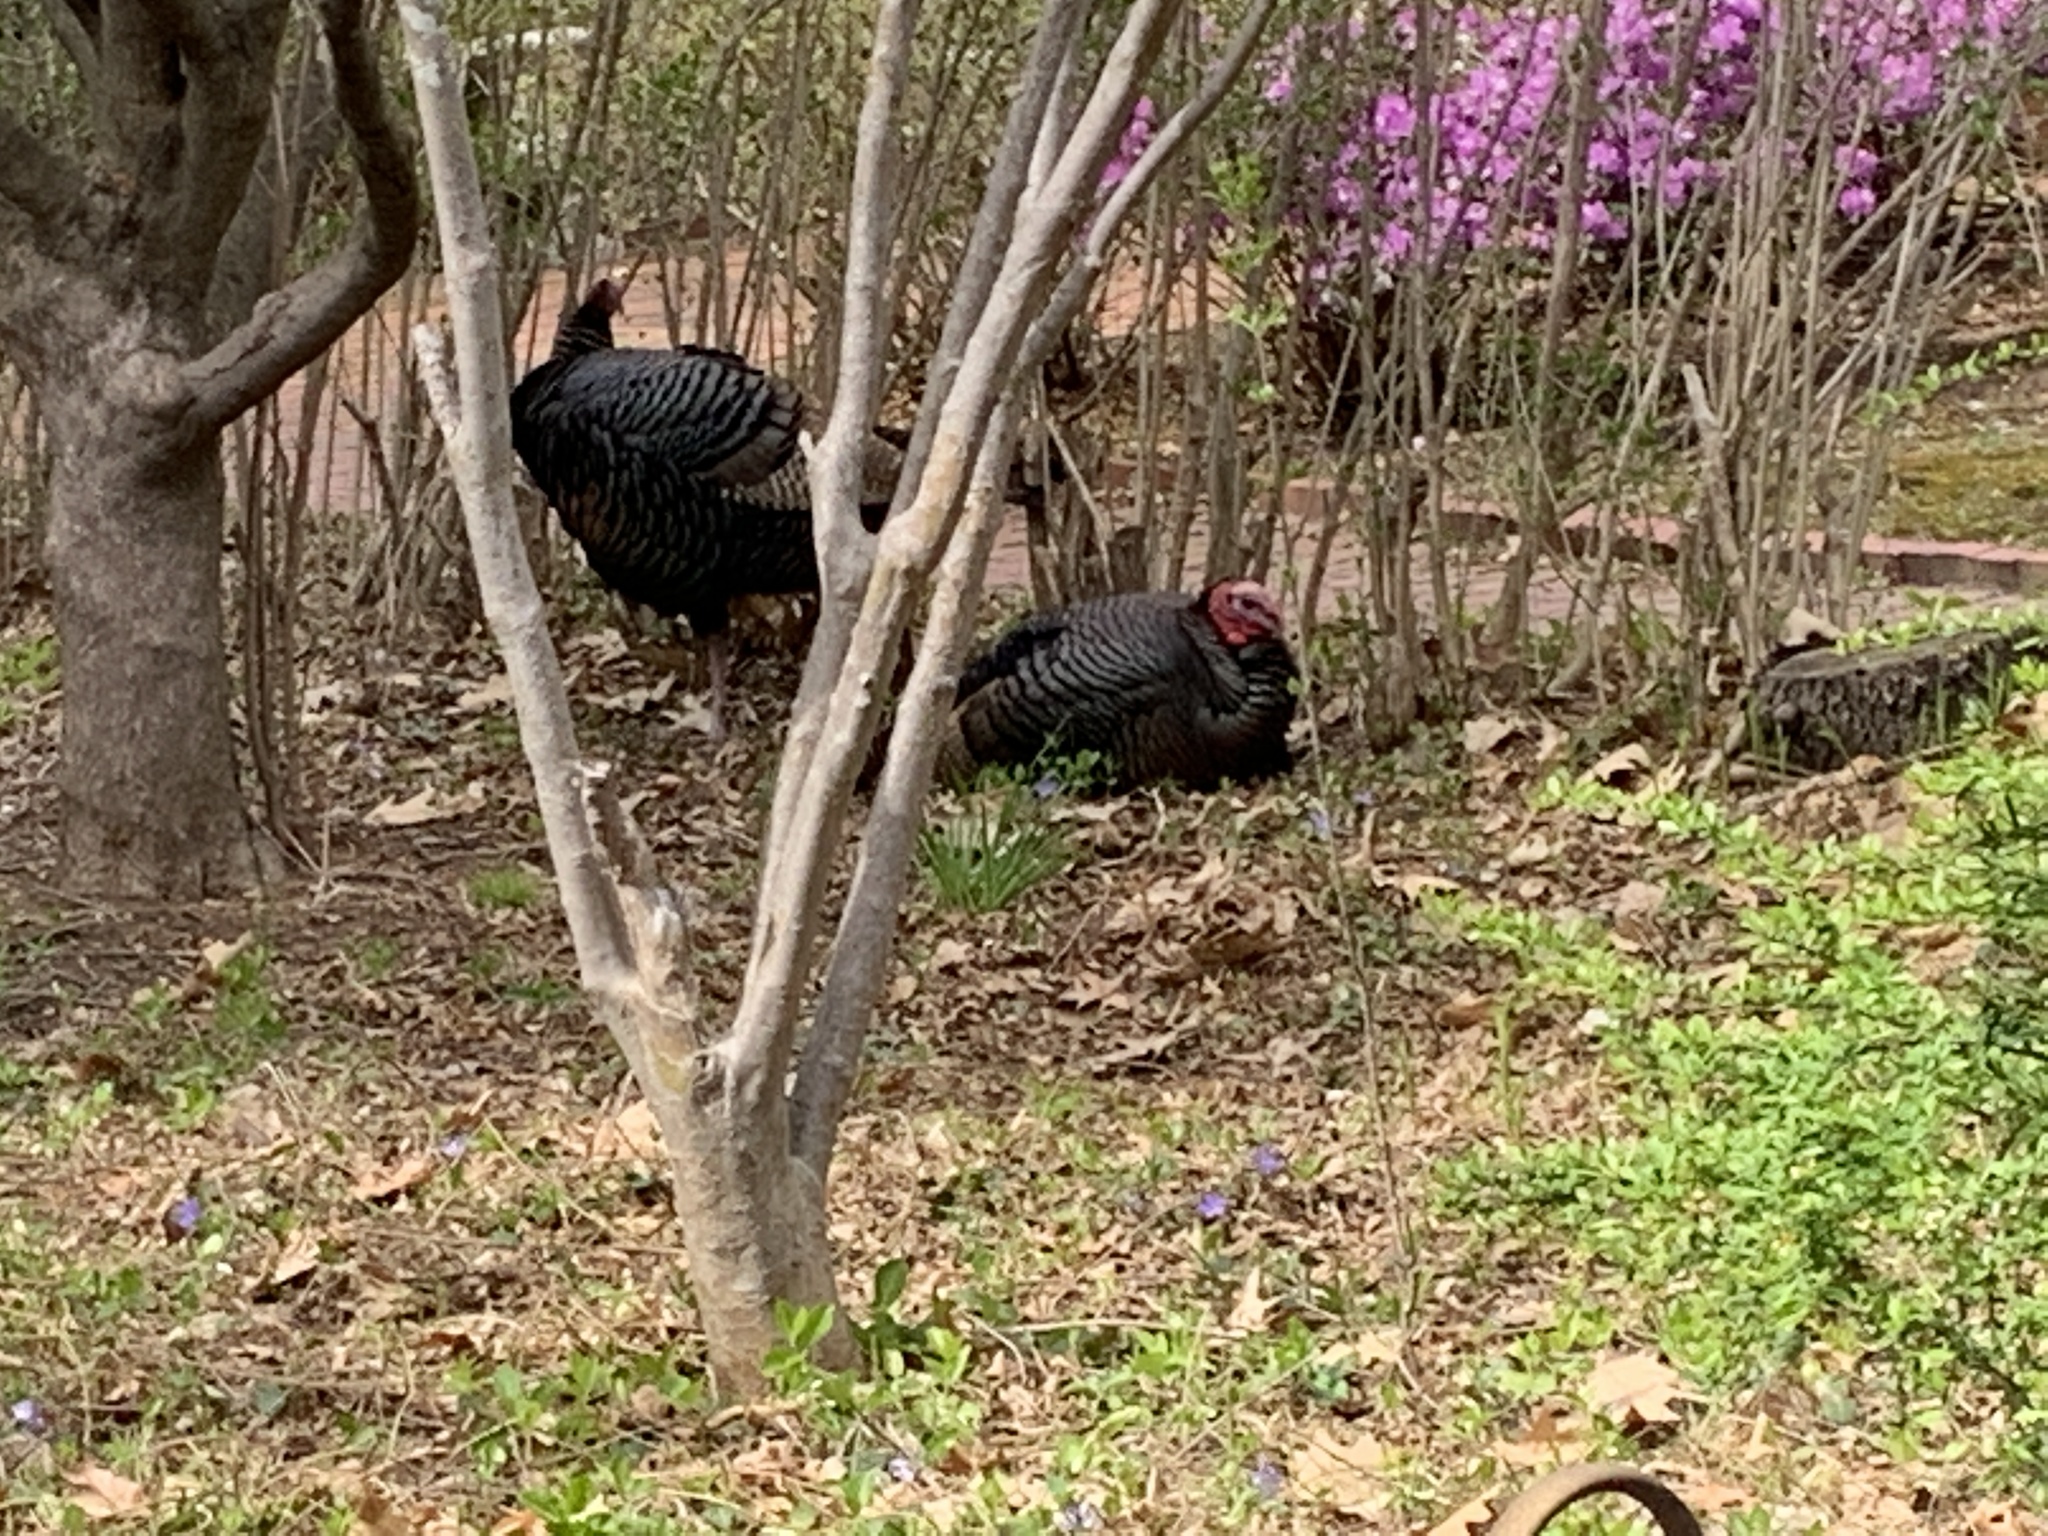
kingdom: Animalia
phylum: Chordata
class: Aves
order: Galliformes
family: Phasianidae
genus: Meleagris
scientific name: Meleagris gallopavo
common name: Wild turkey
